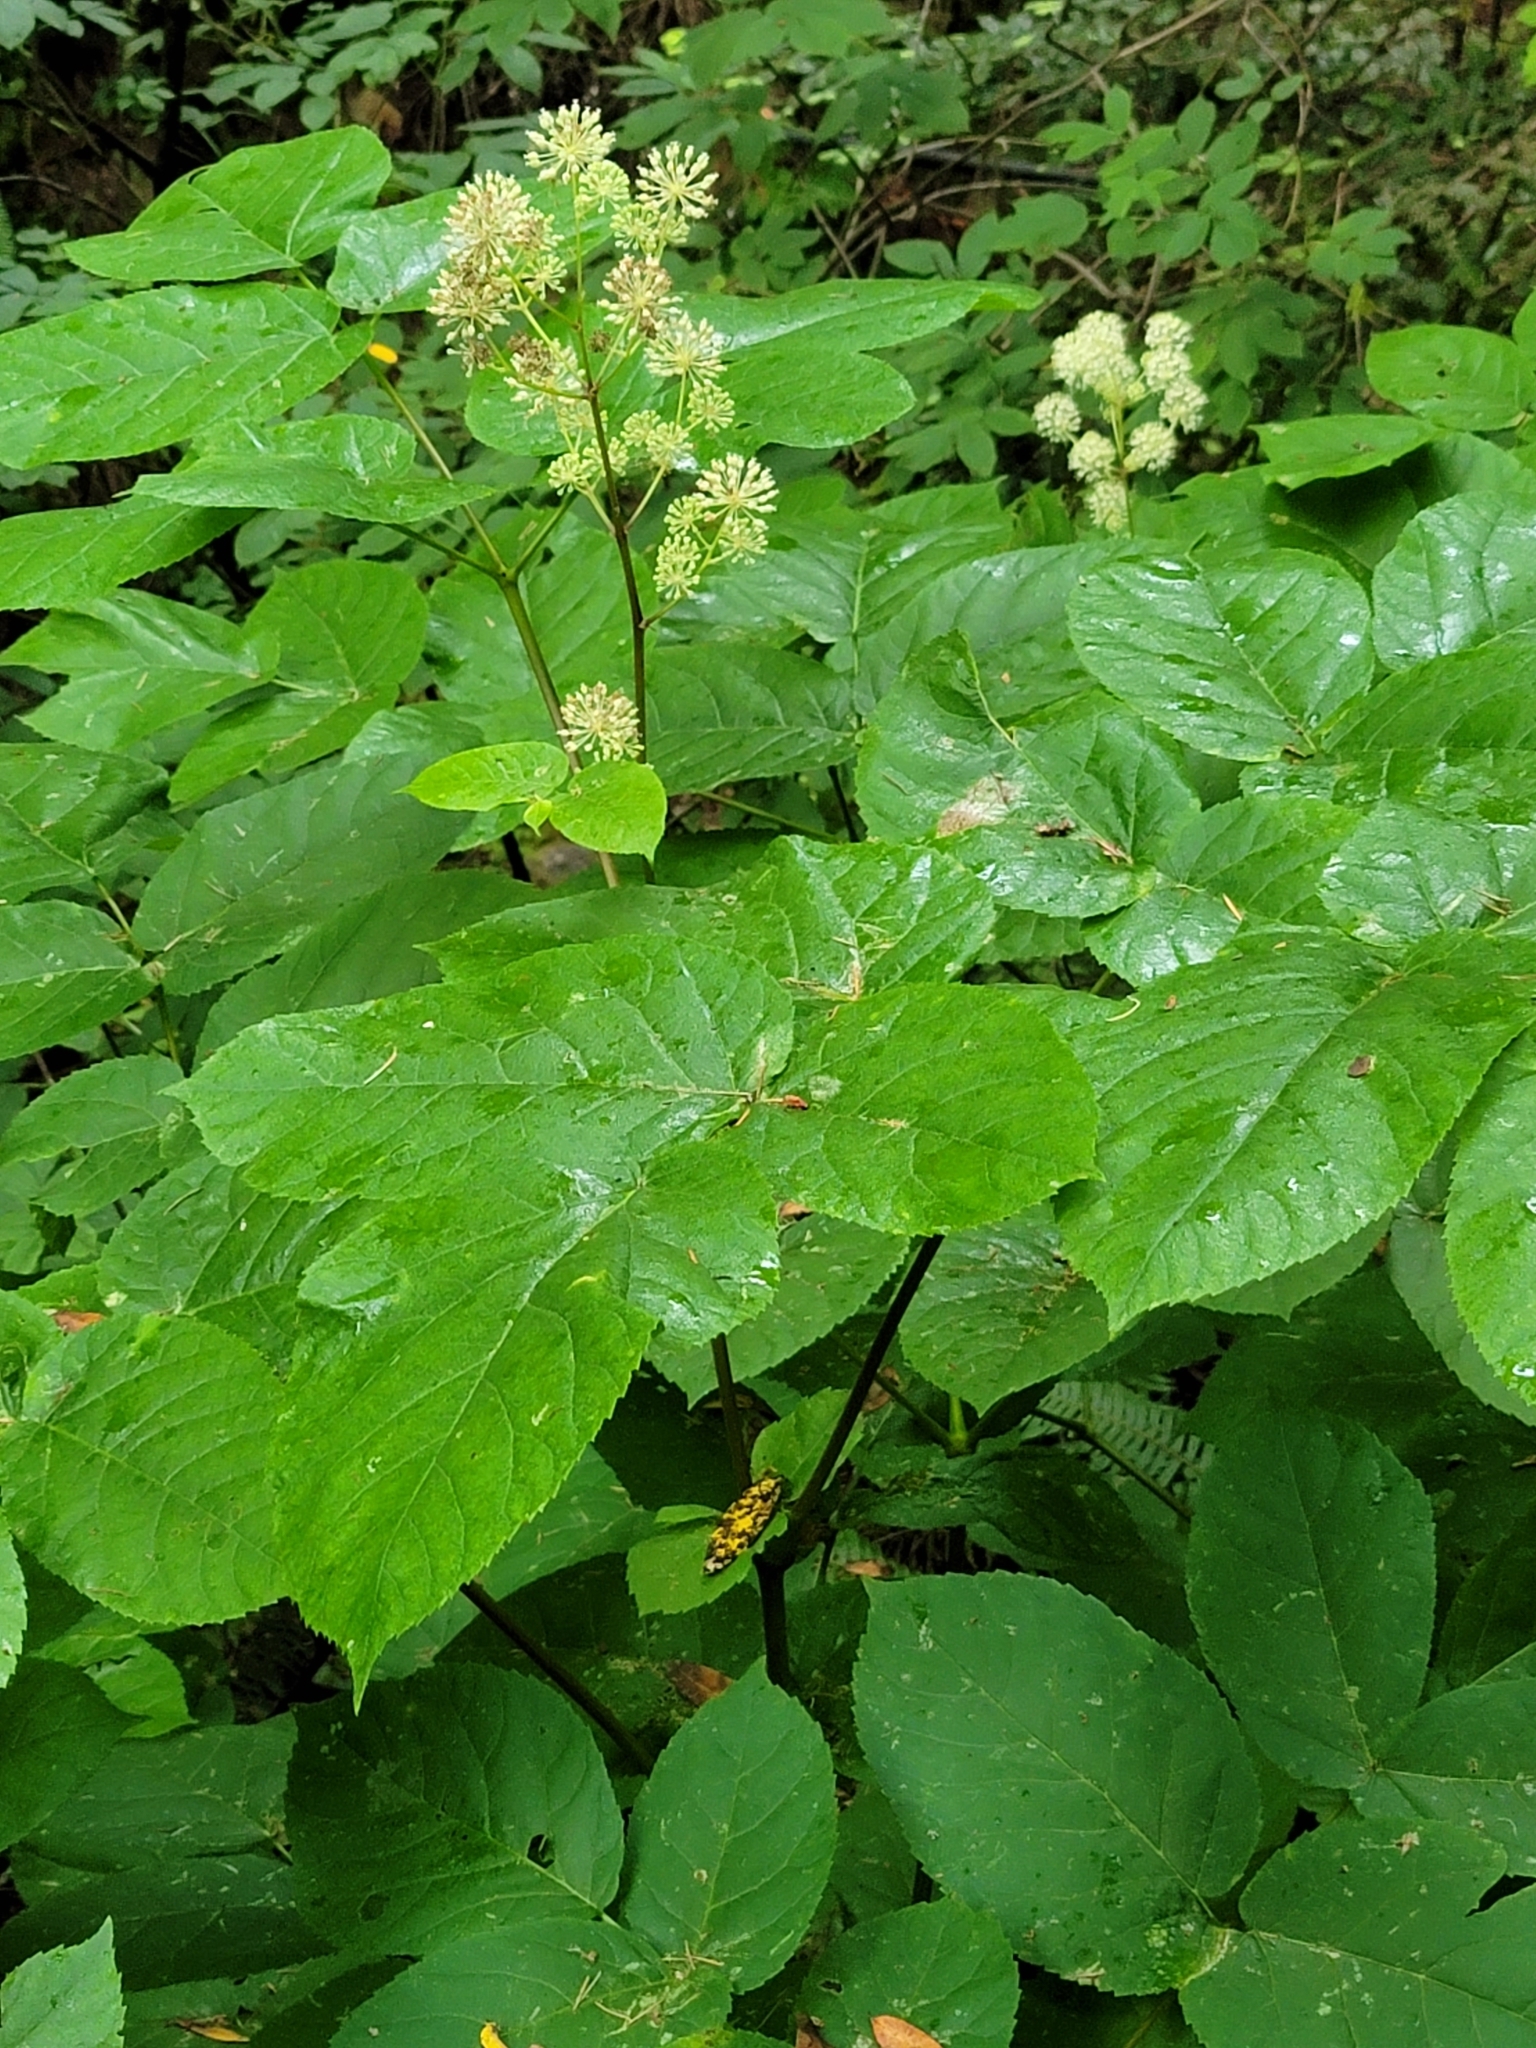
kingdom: Plantae
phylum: Tracheophyta
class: Magnoliopsida
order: Apiales
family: Araliaceae
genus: Aralia
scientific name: Aralia californica
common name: California-ginseng
